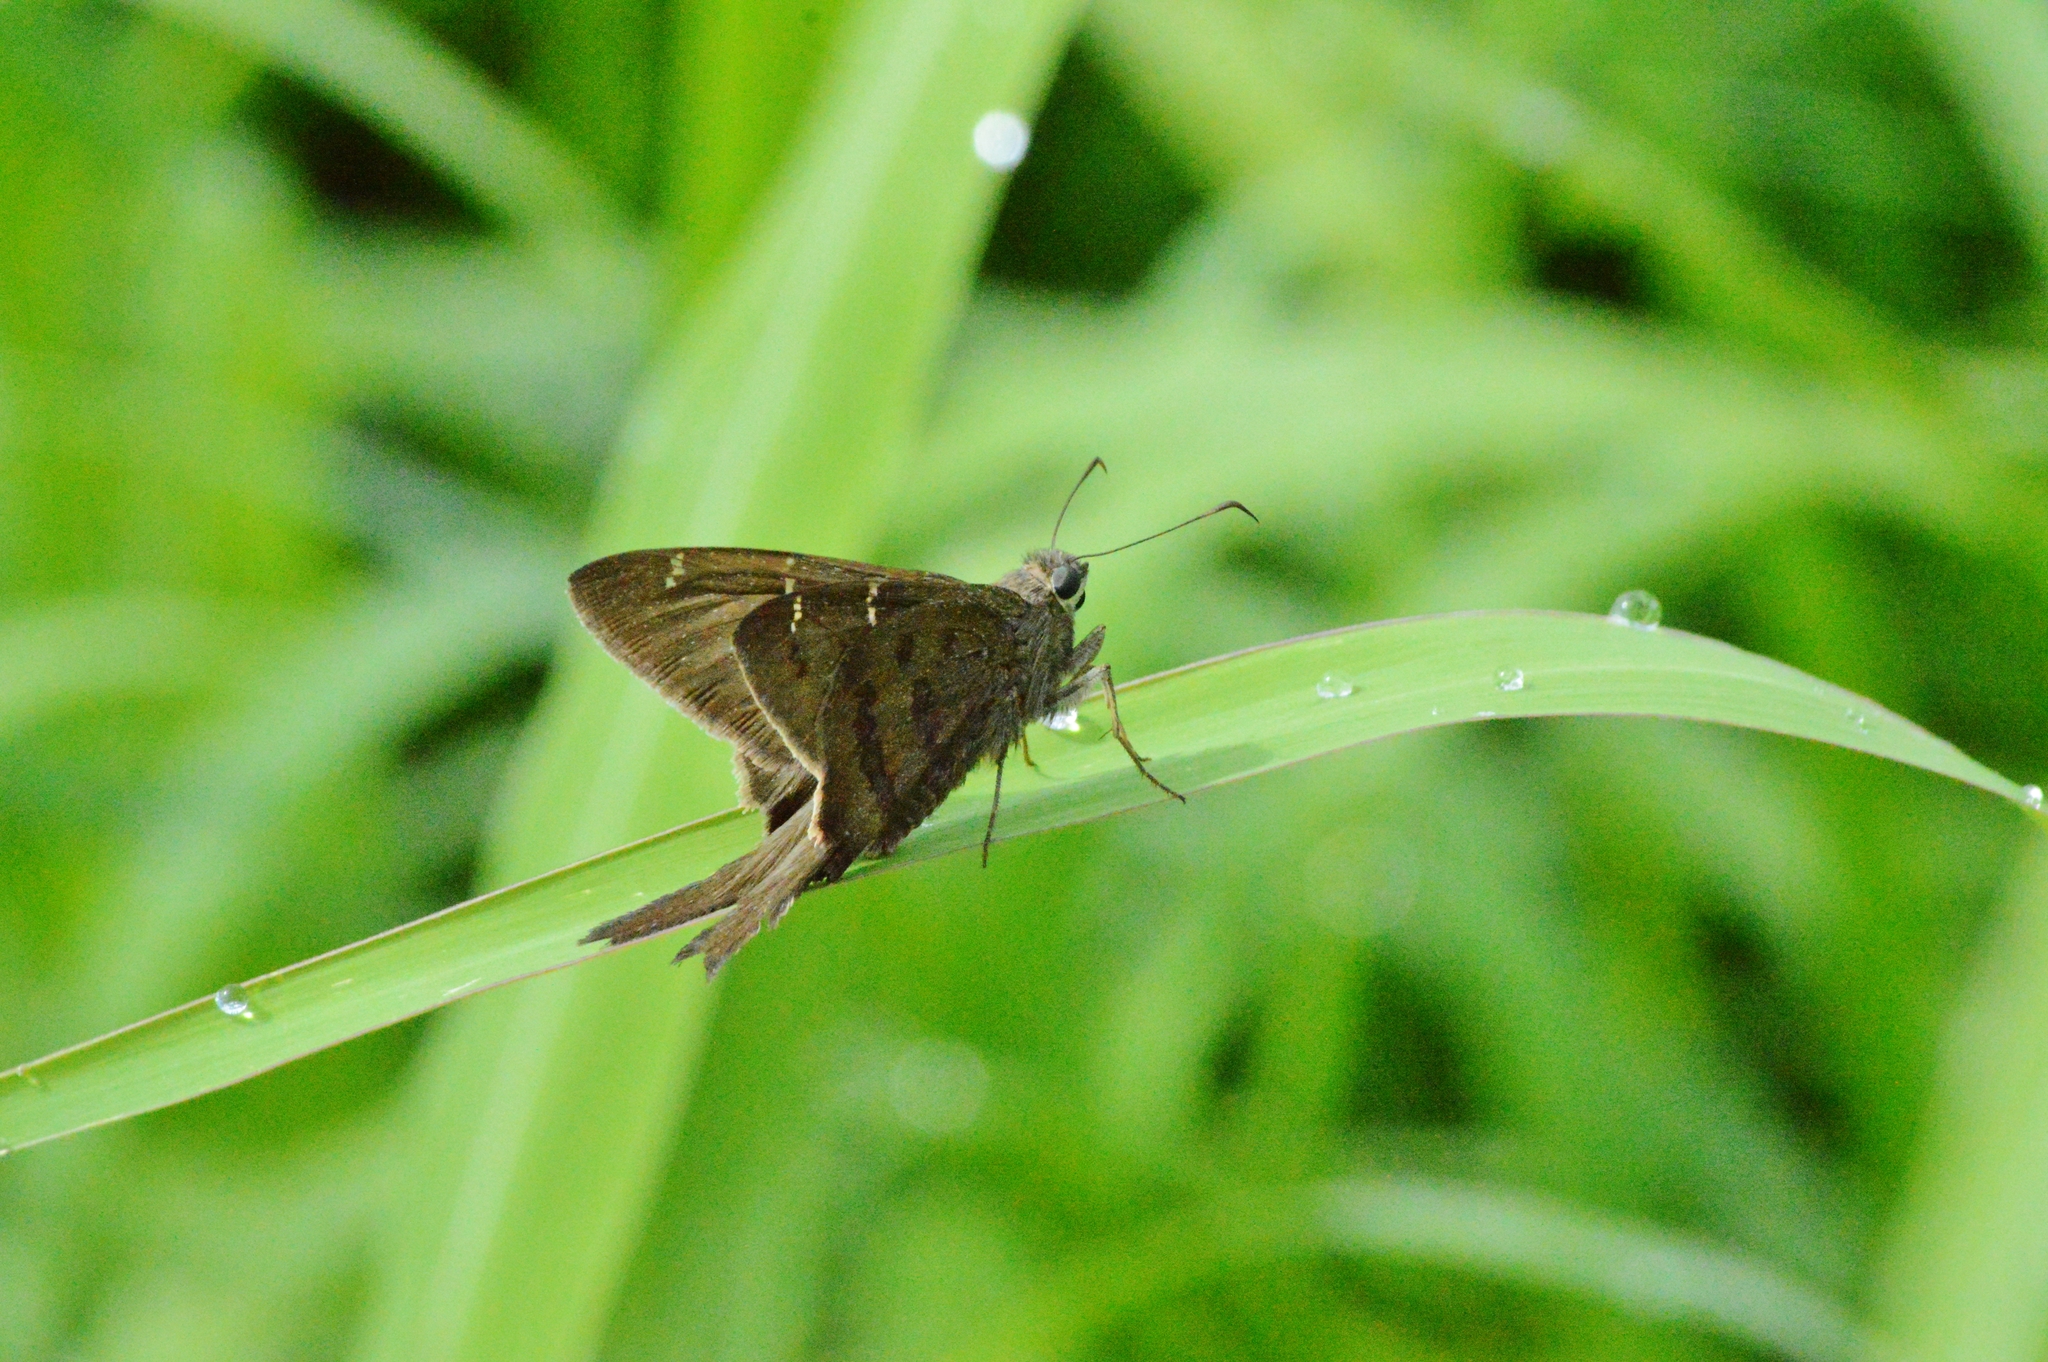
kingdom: Animalia
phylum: Arthropoda
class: Insecta
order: Lepidoptera
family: Hesperiidae
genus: Urbanus
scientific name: Urbanus procne
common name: Brown longtail
